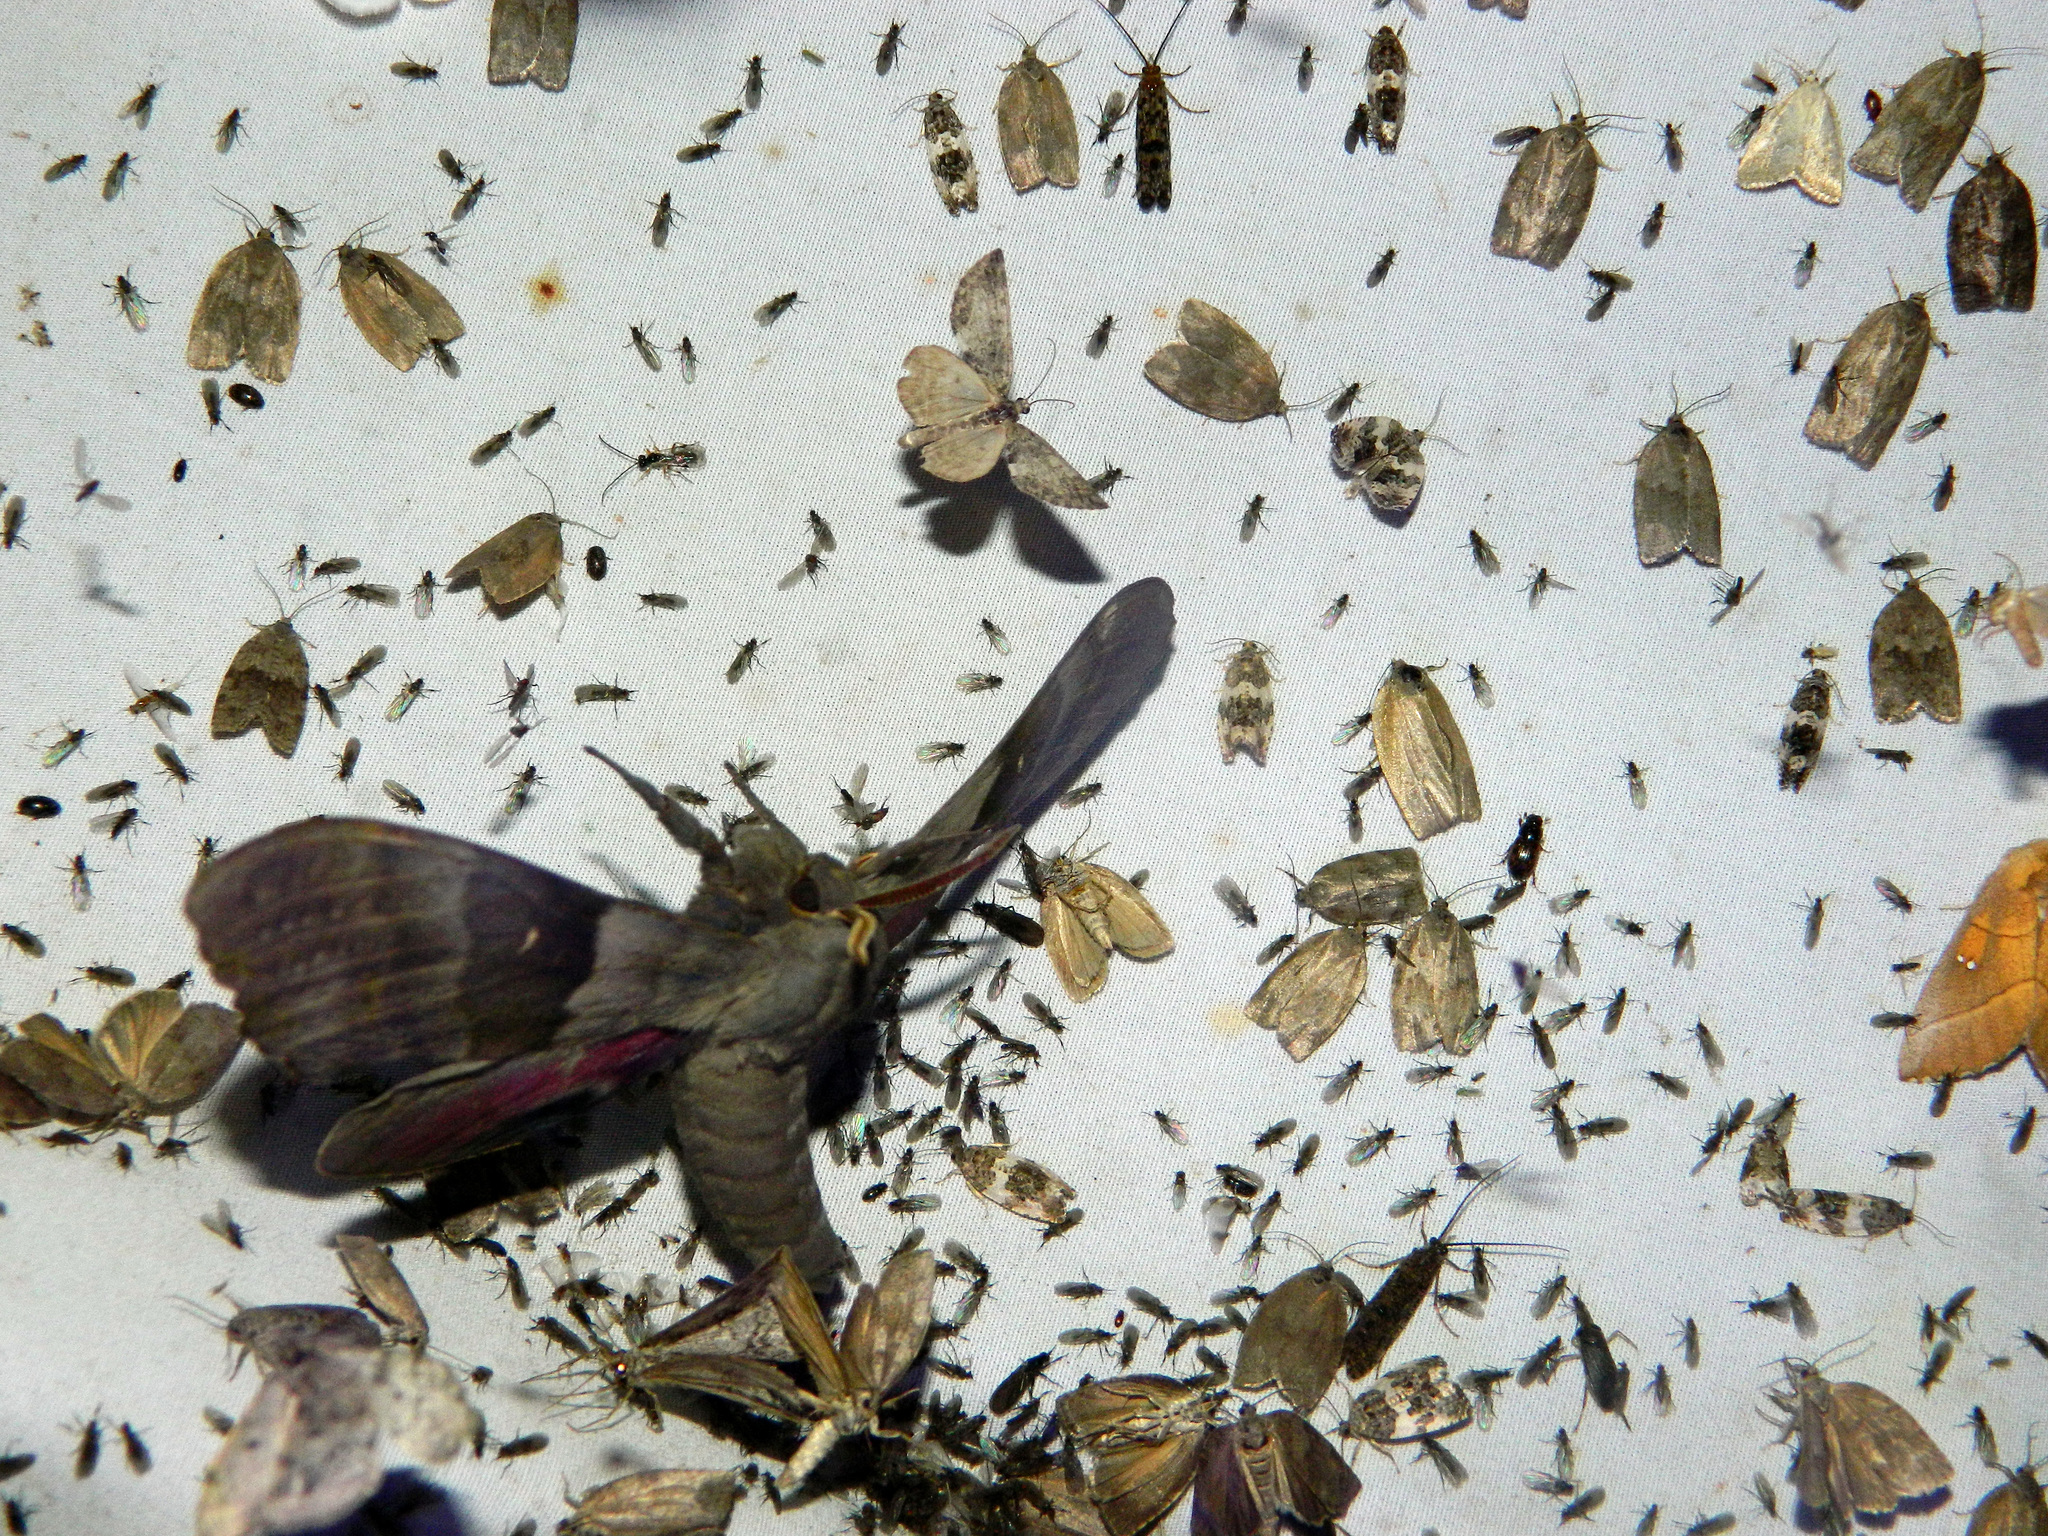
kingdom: Animalia
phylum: Arthropoda
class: Insecta
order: Lepidoptera
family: Sphingidae
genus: Pachysphinx
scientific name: Pachysphinx modesta
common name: Big poplar sphinx
